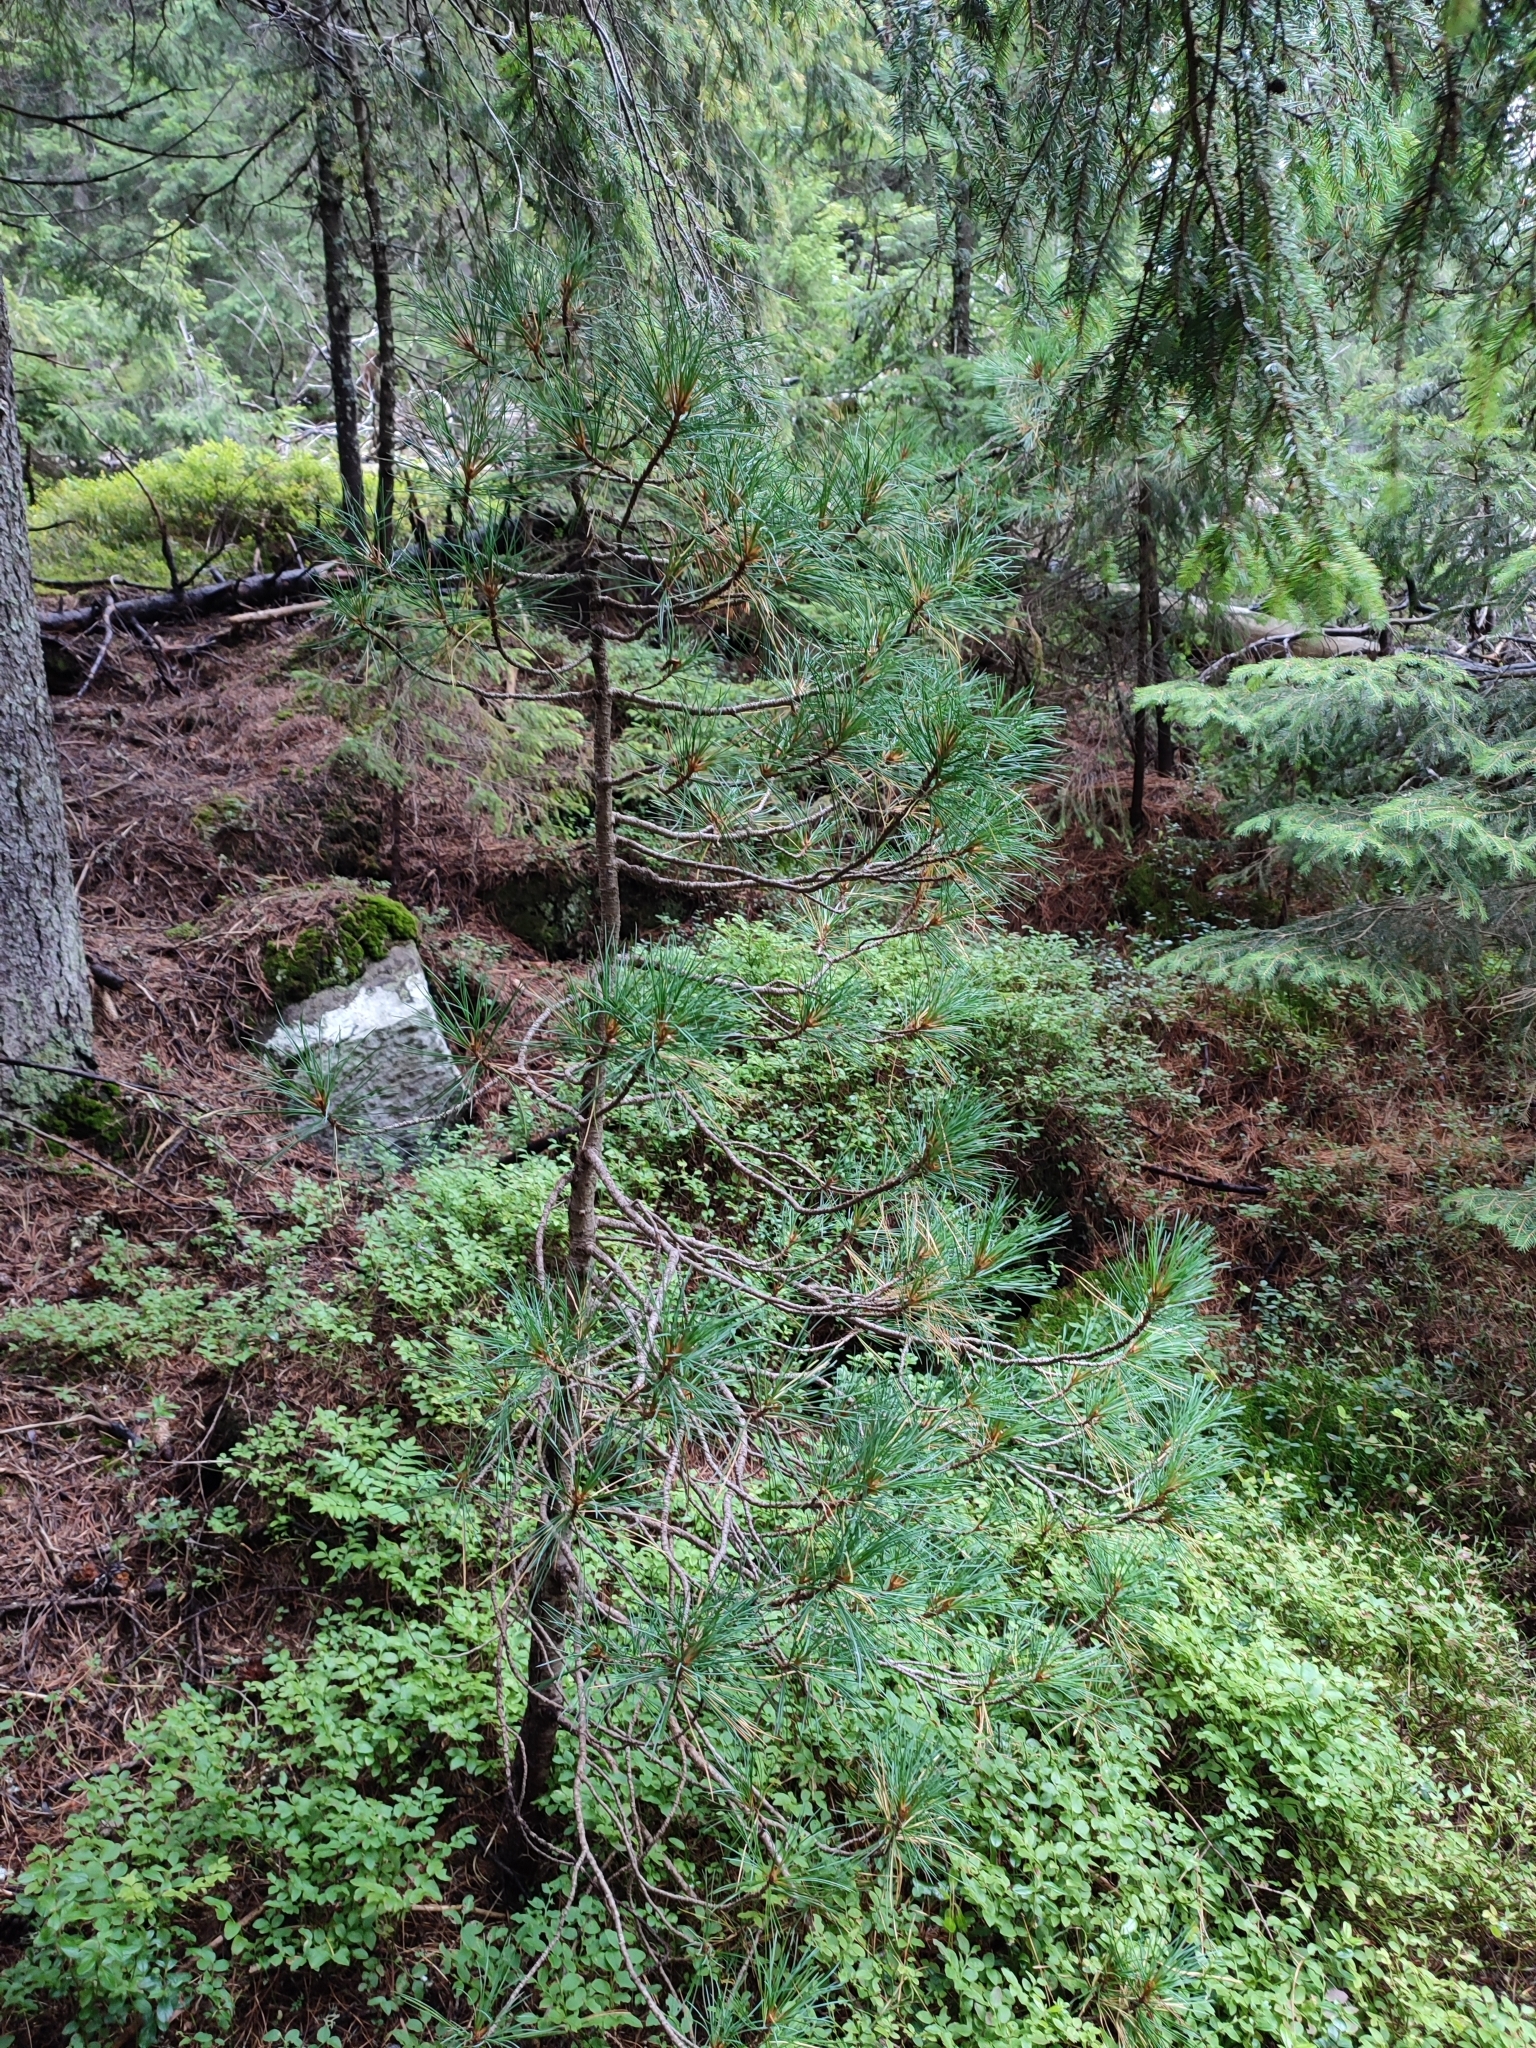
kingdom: Plantae
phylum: Tracheophyta
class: Pinopsida
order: Pinales
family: Pinaceae
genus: Pinus
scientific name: Pinus cembra
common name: Arolla pine
